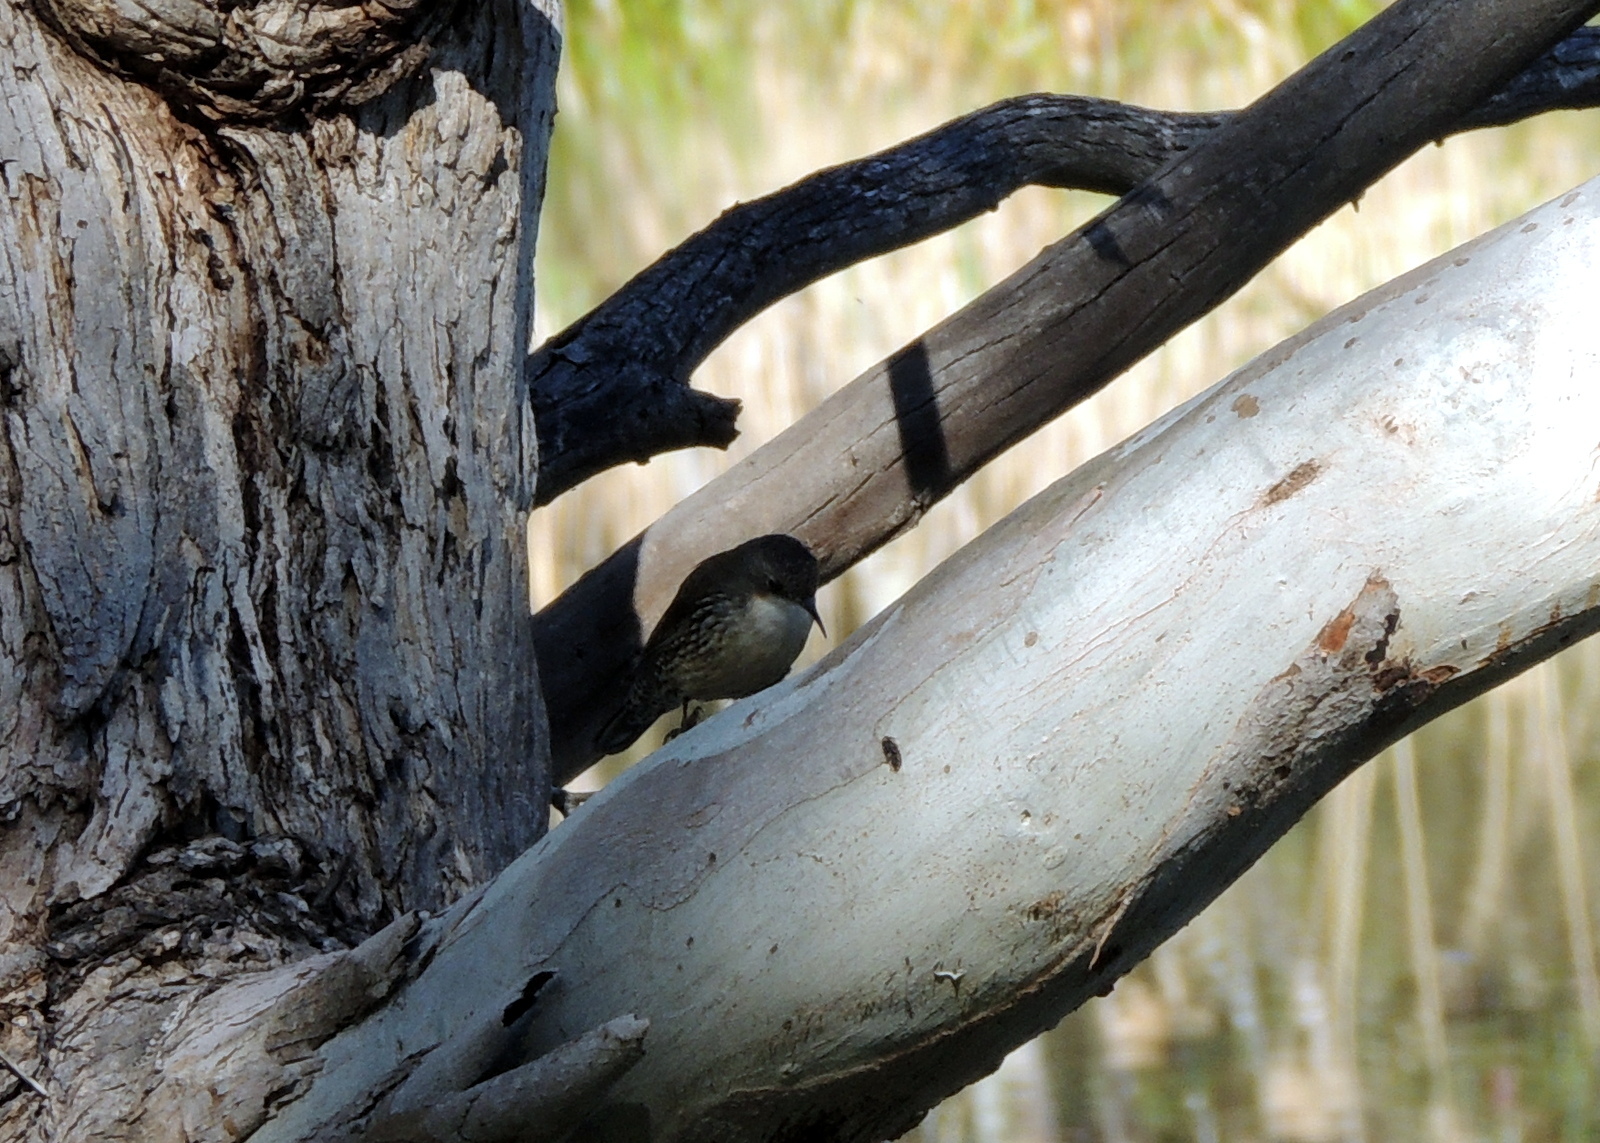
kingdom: Animalia
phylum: Chordata
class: Aves
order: Passeriformes
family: Climacteridae
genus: Cormobates
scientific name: Cormobates leucophaea
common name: White-throated treecreeper
